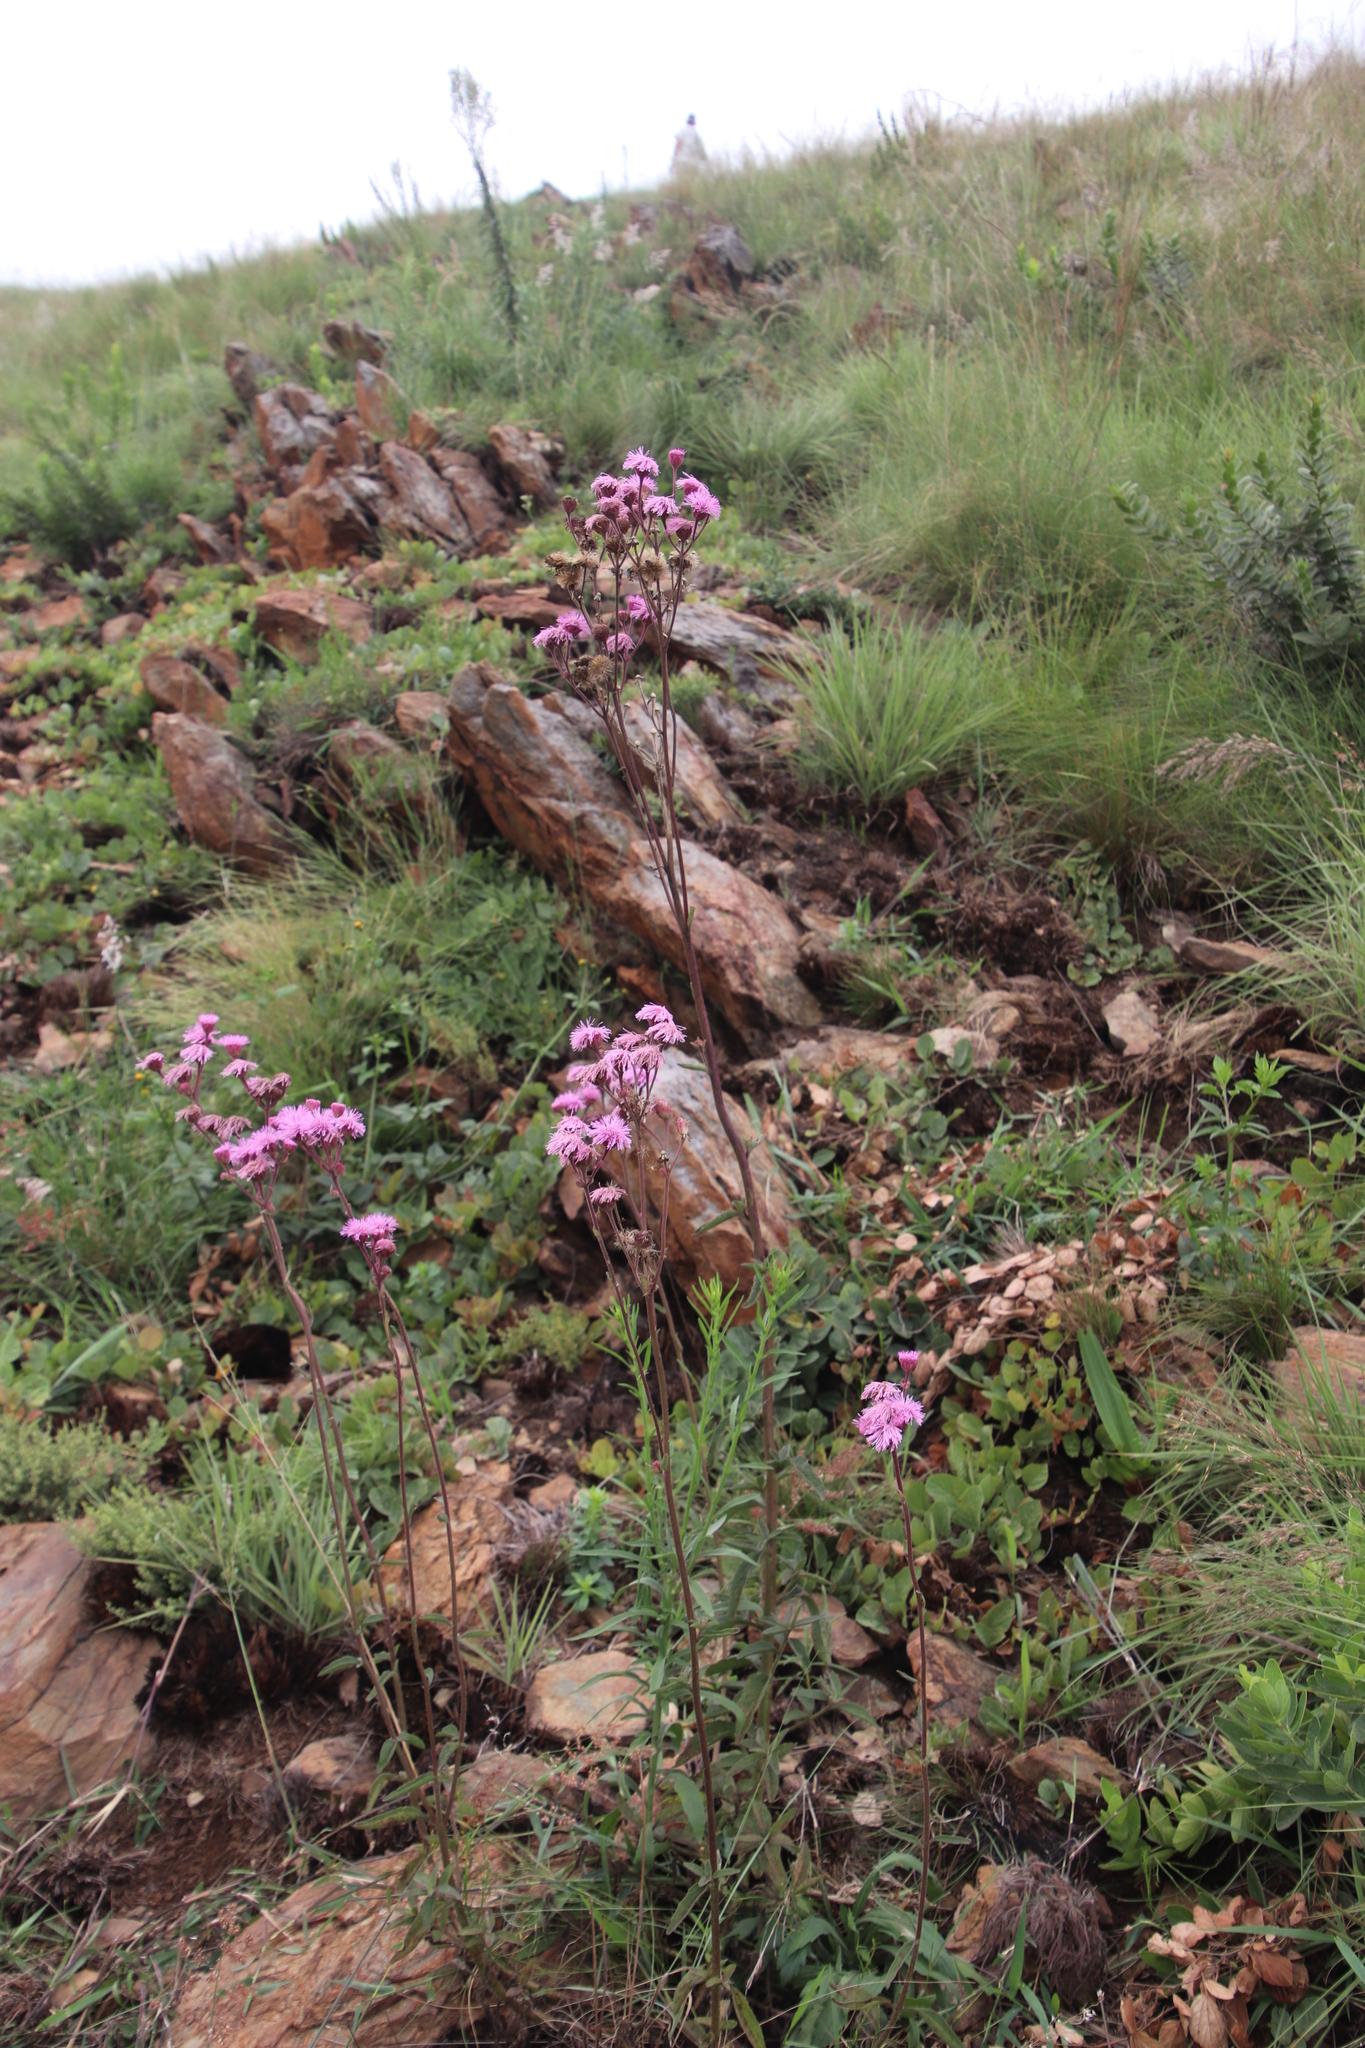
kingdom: Plantae
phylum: Tracheophyta
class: Magnoliopsida
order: Asterales
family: Asteraceae
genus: Campuloclinium
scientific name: Campuloclinium macrocephalum
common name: Pompomweed
